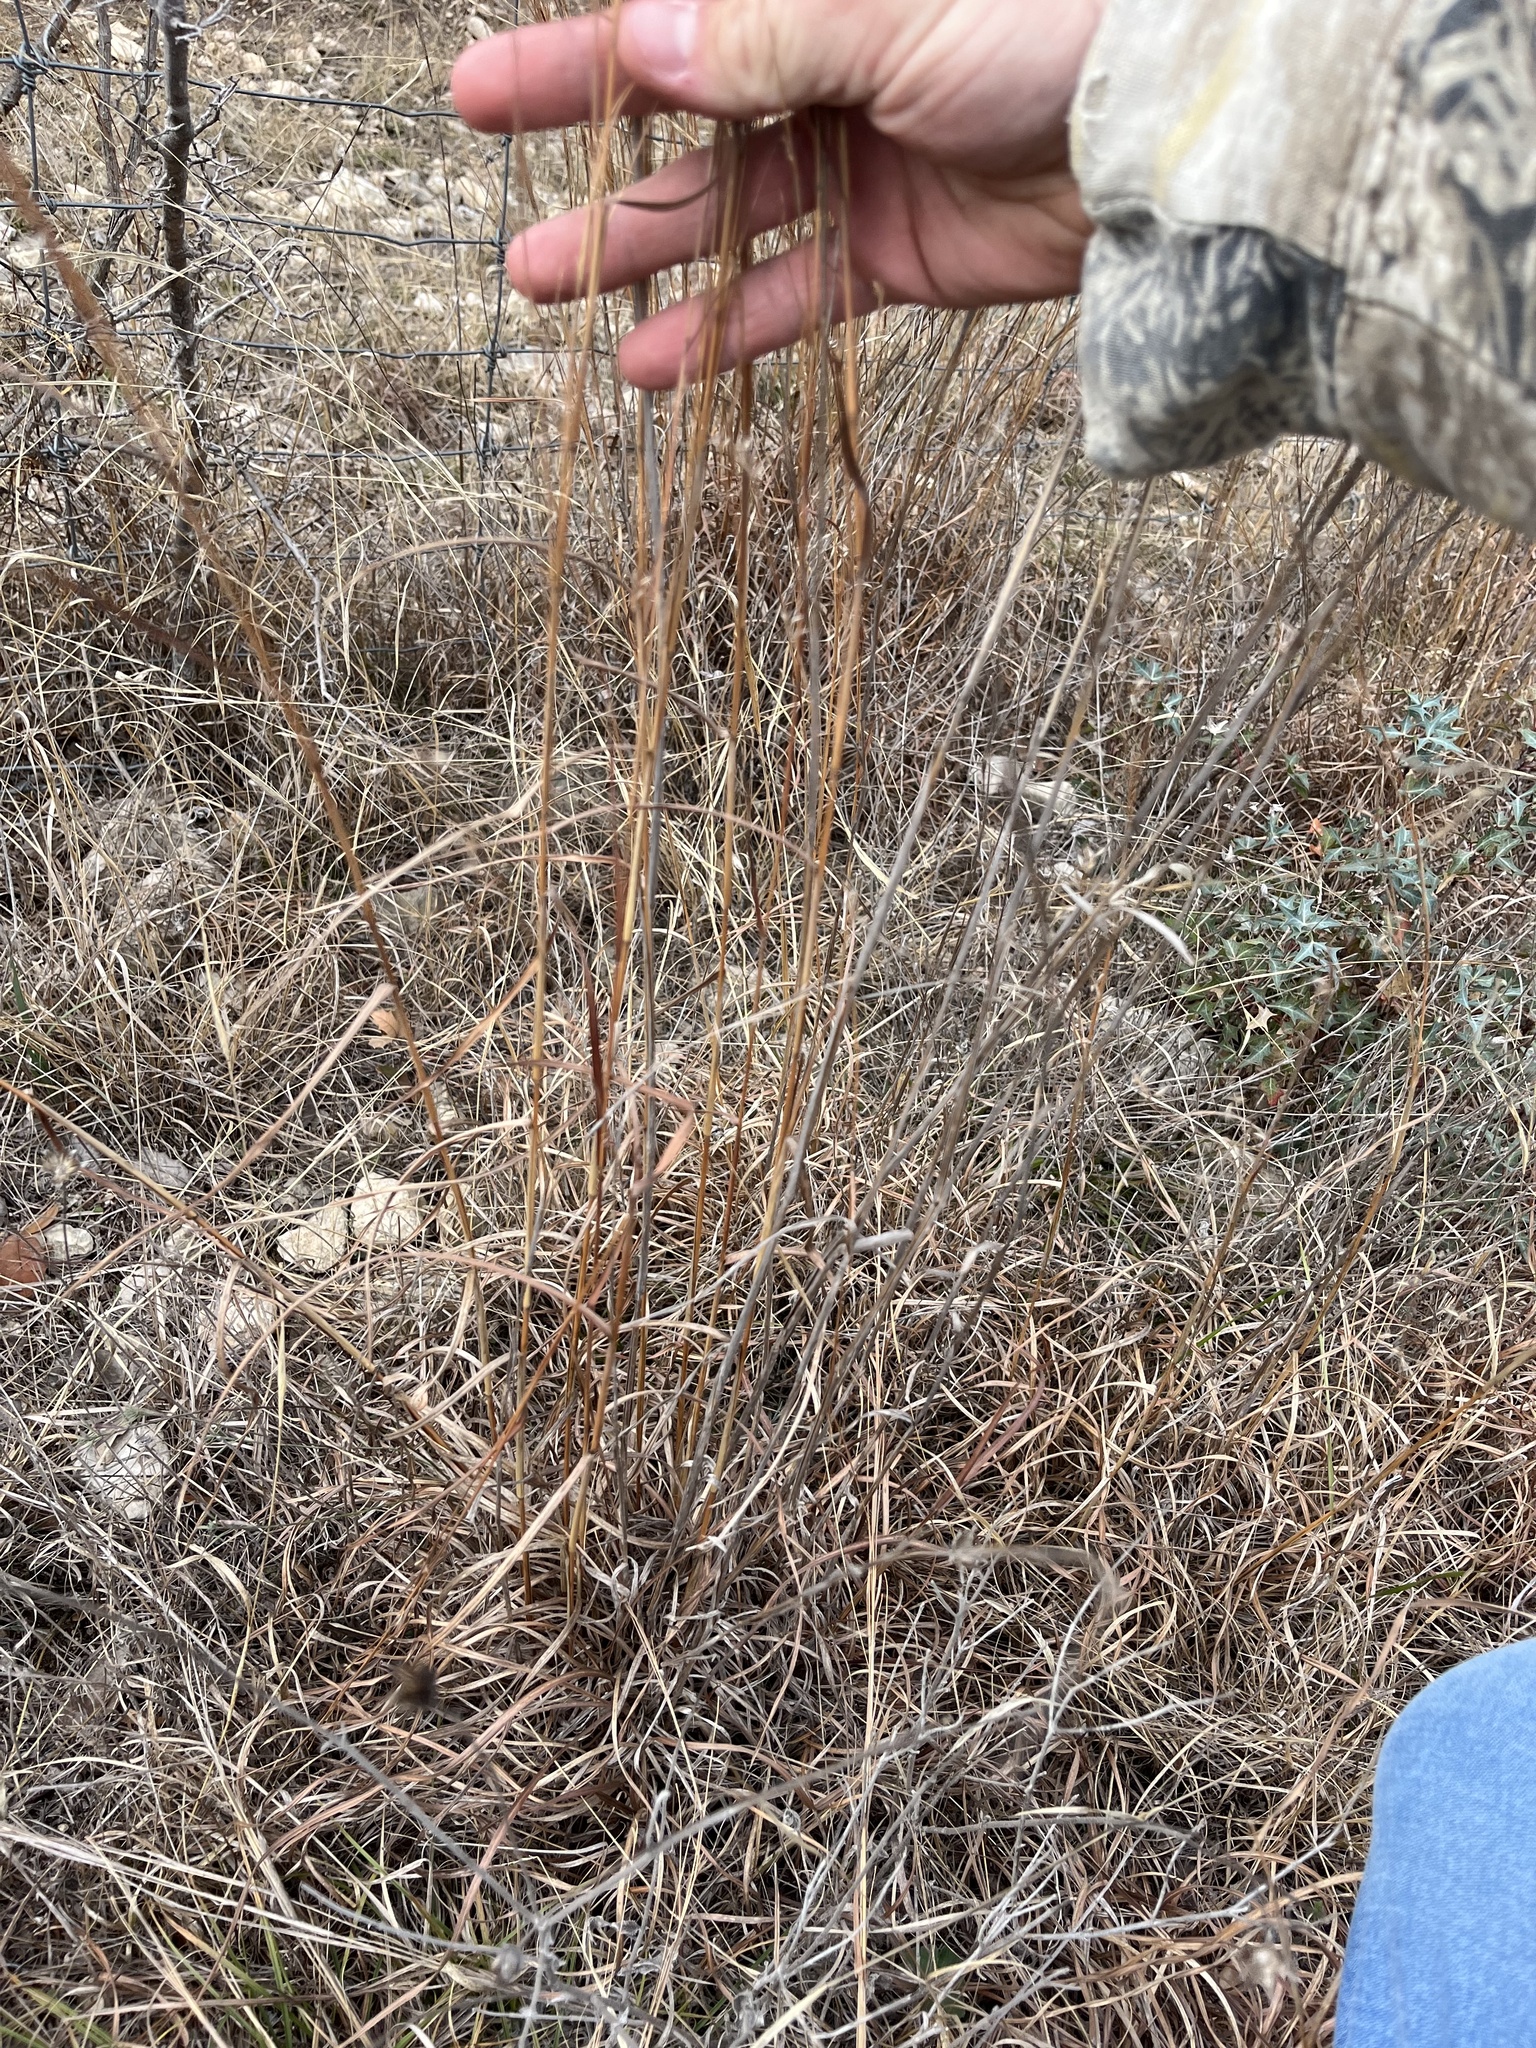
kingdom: Plantae
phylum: Tracheophyta
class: Liliopsida
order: Poales
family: Poaceae
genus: Schizachyrium
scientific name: Schizachyrium scoparium
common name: Little bluestem
